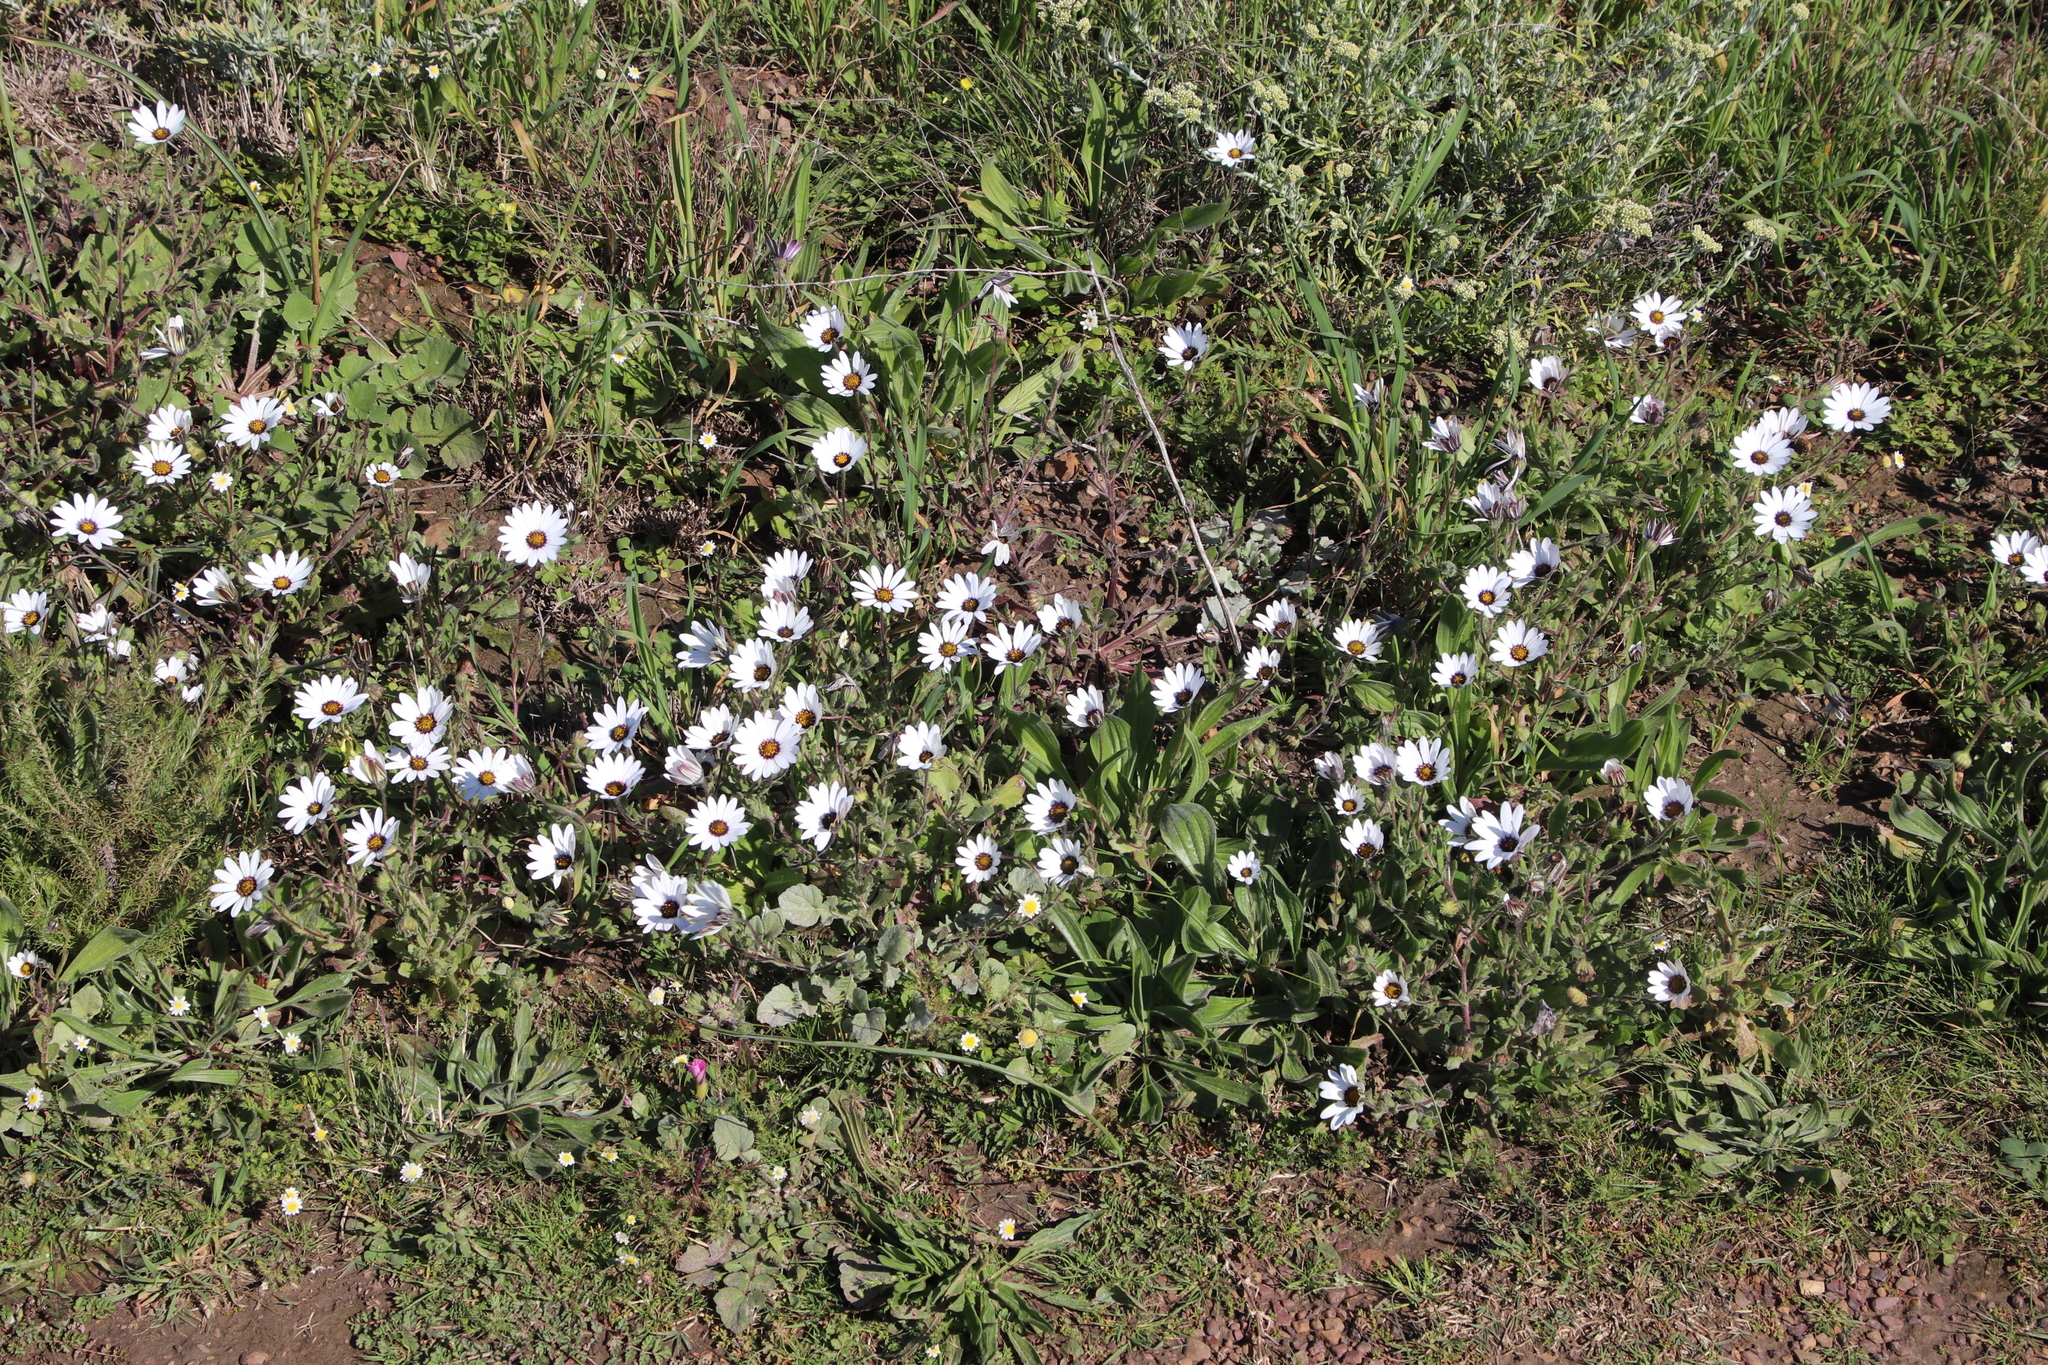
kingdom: Plantae
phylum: Tracheophyta
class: Magnoliopsida
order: Asterales
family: Asteraceae
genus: Dimorphotheca
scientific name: Dimorphotheca pluvialis
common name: Weather prophet
